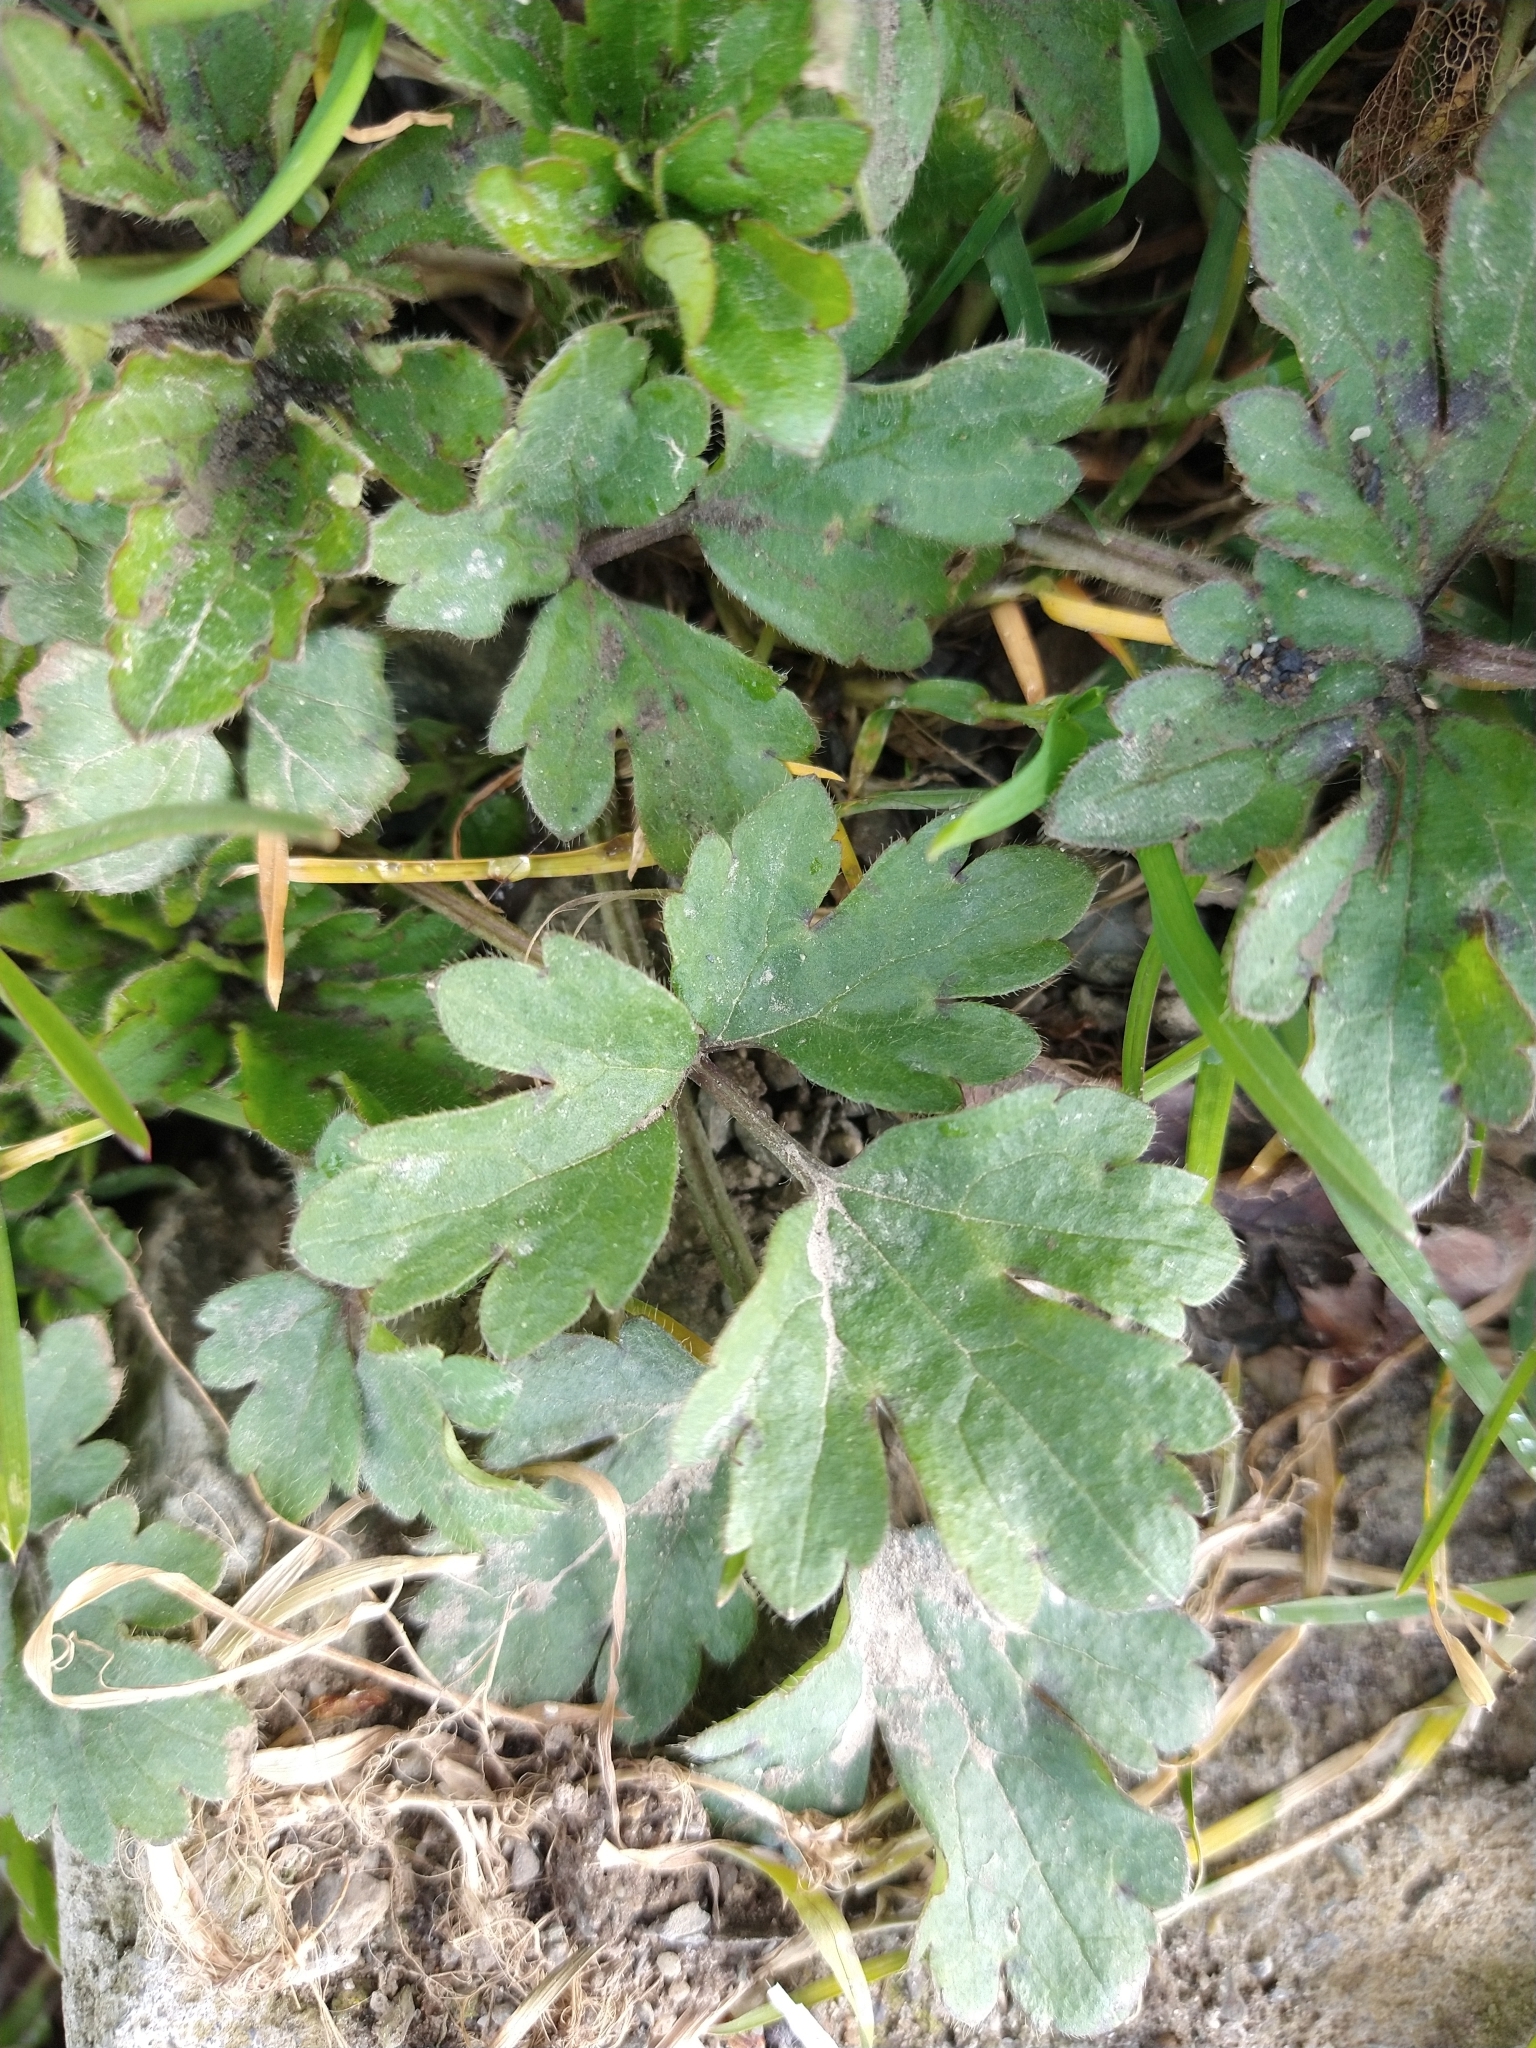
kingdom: Plantae
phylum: Tracheophyta
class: Magnoliopsida
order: Ranunculales
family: Ranunculaceae
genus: Ranunculus
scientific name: Ranunculus repens
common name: Creeping buttercup
